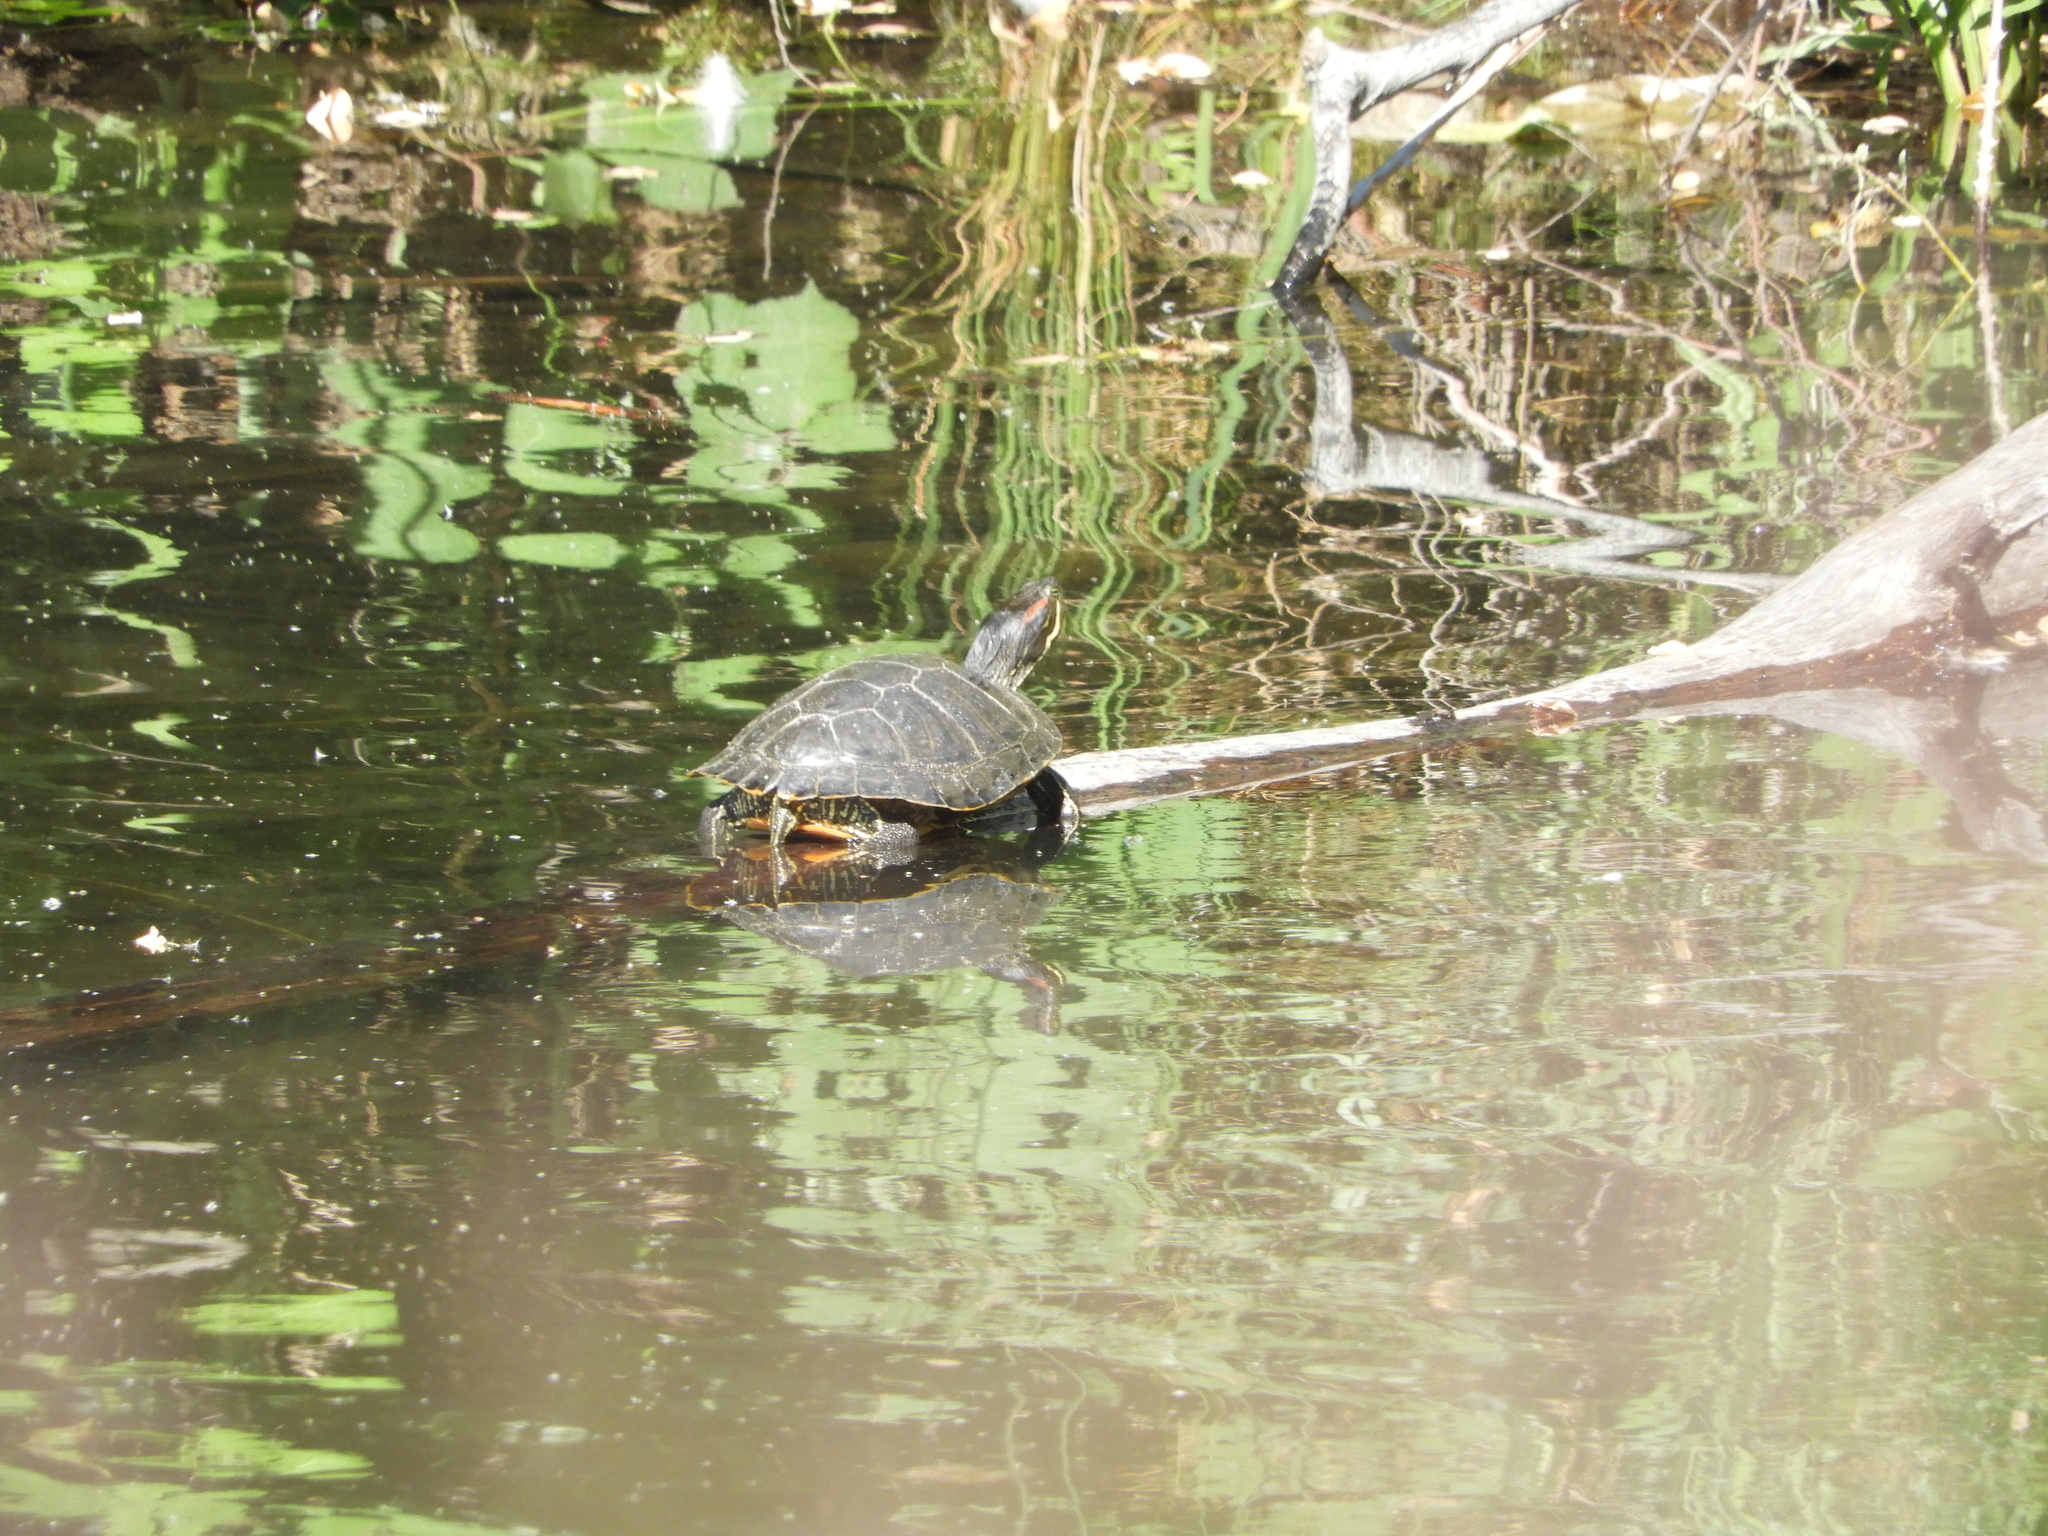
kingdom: Animalia
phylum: Chordata
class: Testudines
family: Emydidae
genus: Trachemys
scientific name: Trachemys scripta
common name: Slider
